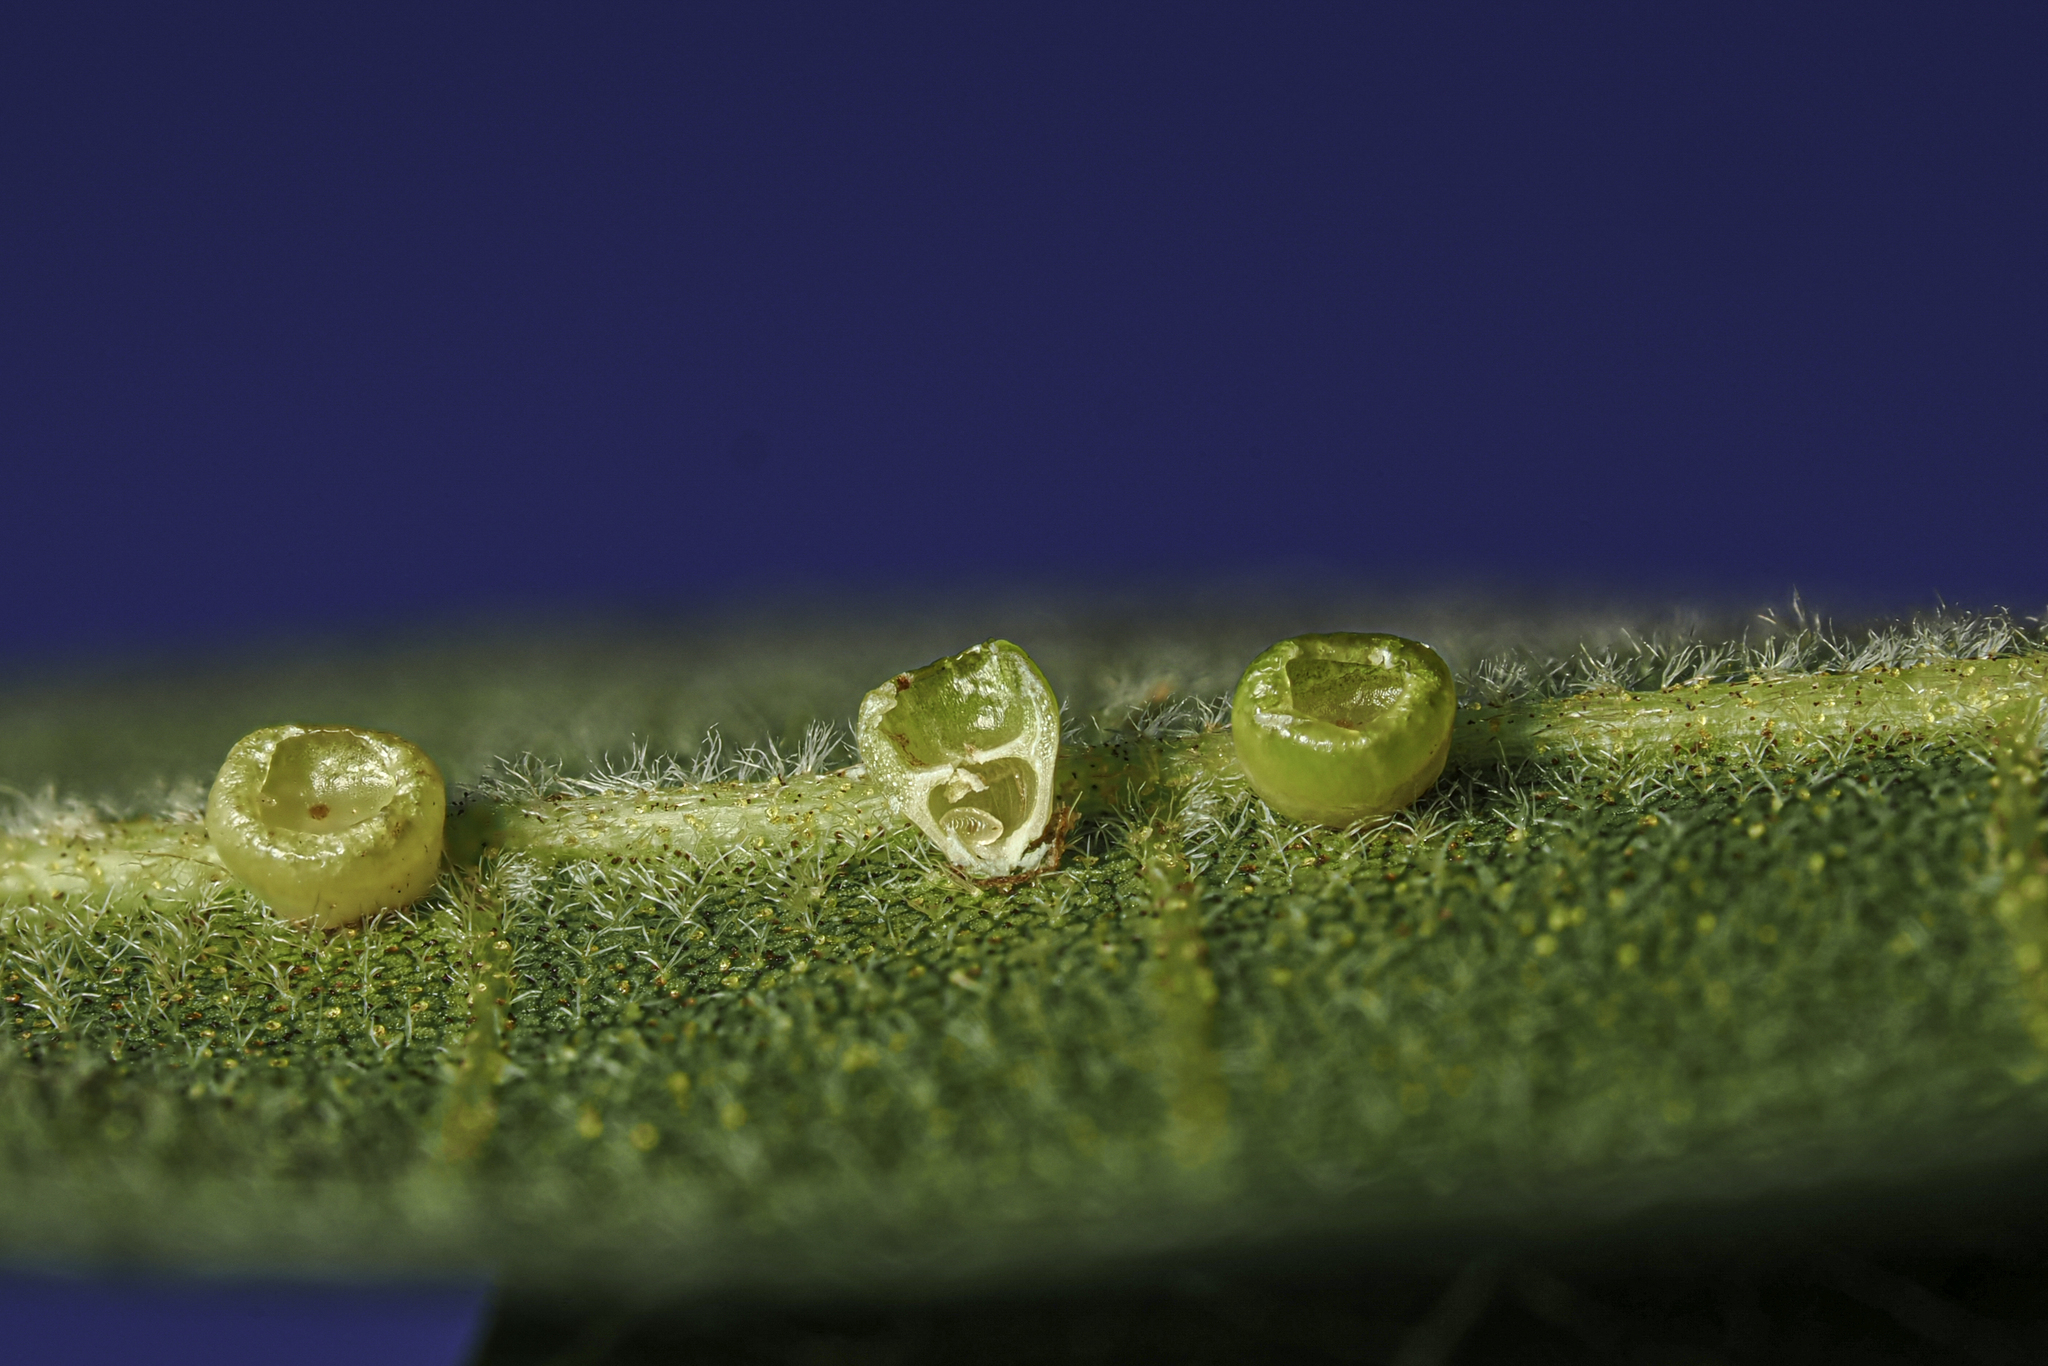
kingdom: Animalia
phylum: Arthropoda
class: Insecta
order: Diptera
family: Cecidomyiidae
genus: Caryomyia
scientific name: Caryomyia levicrustum
